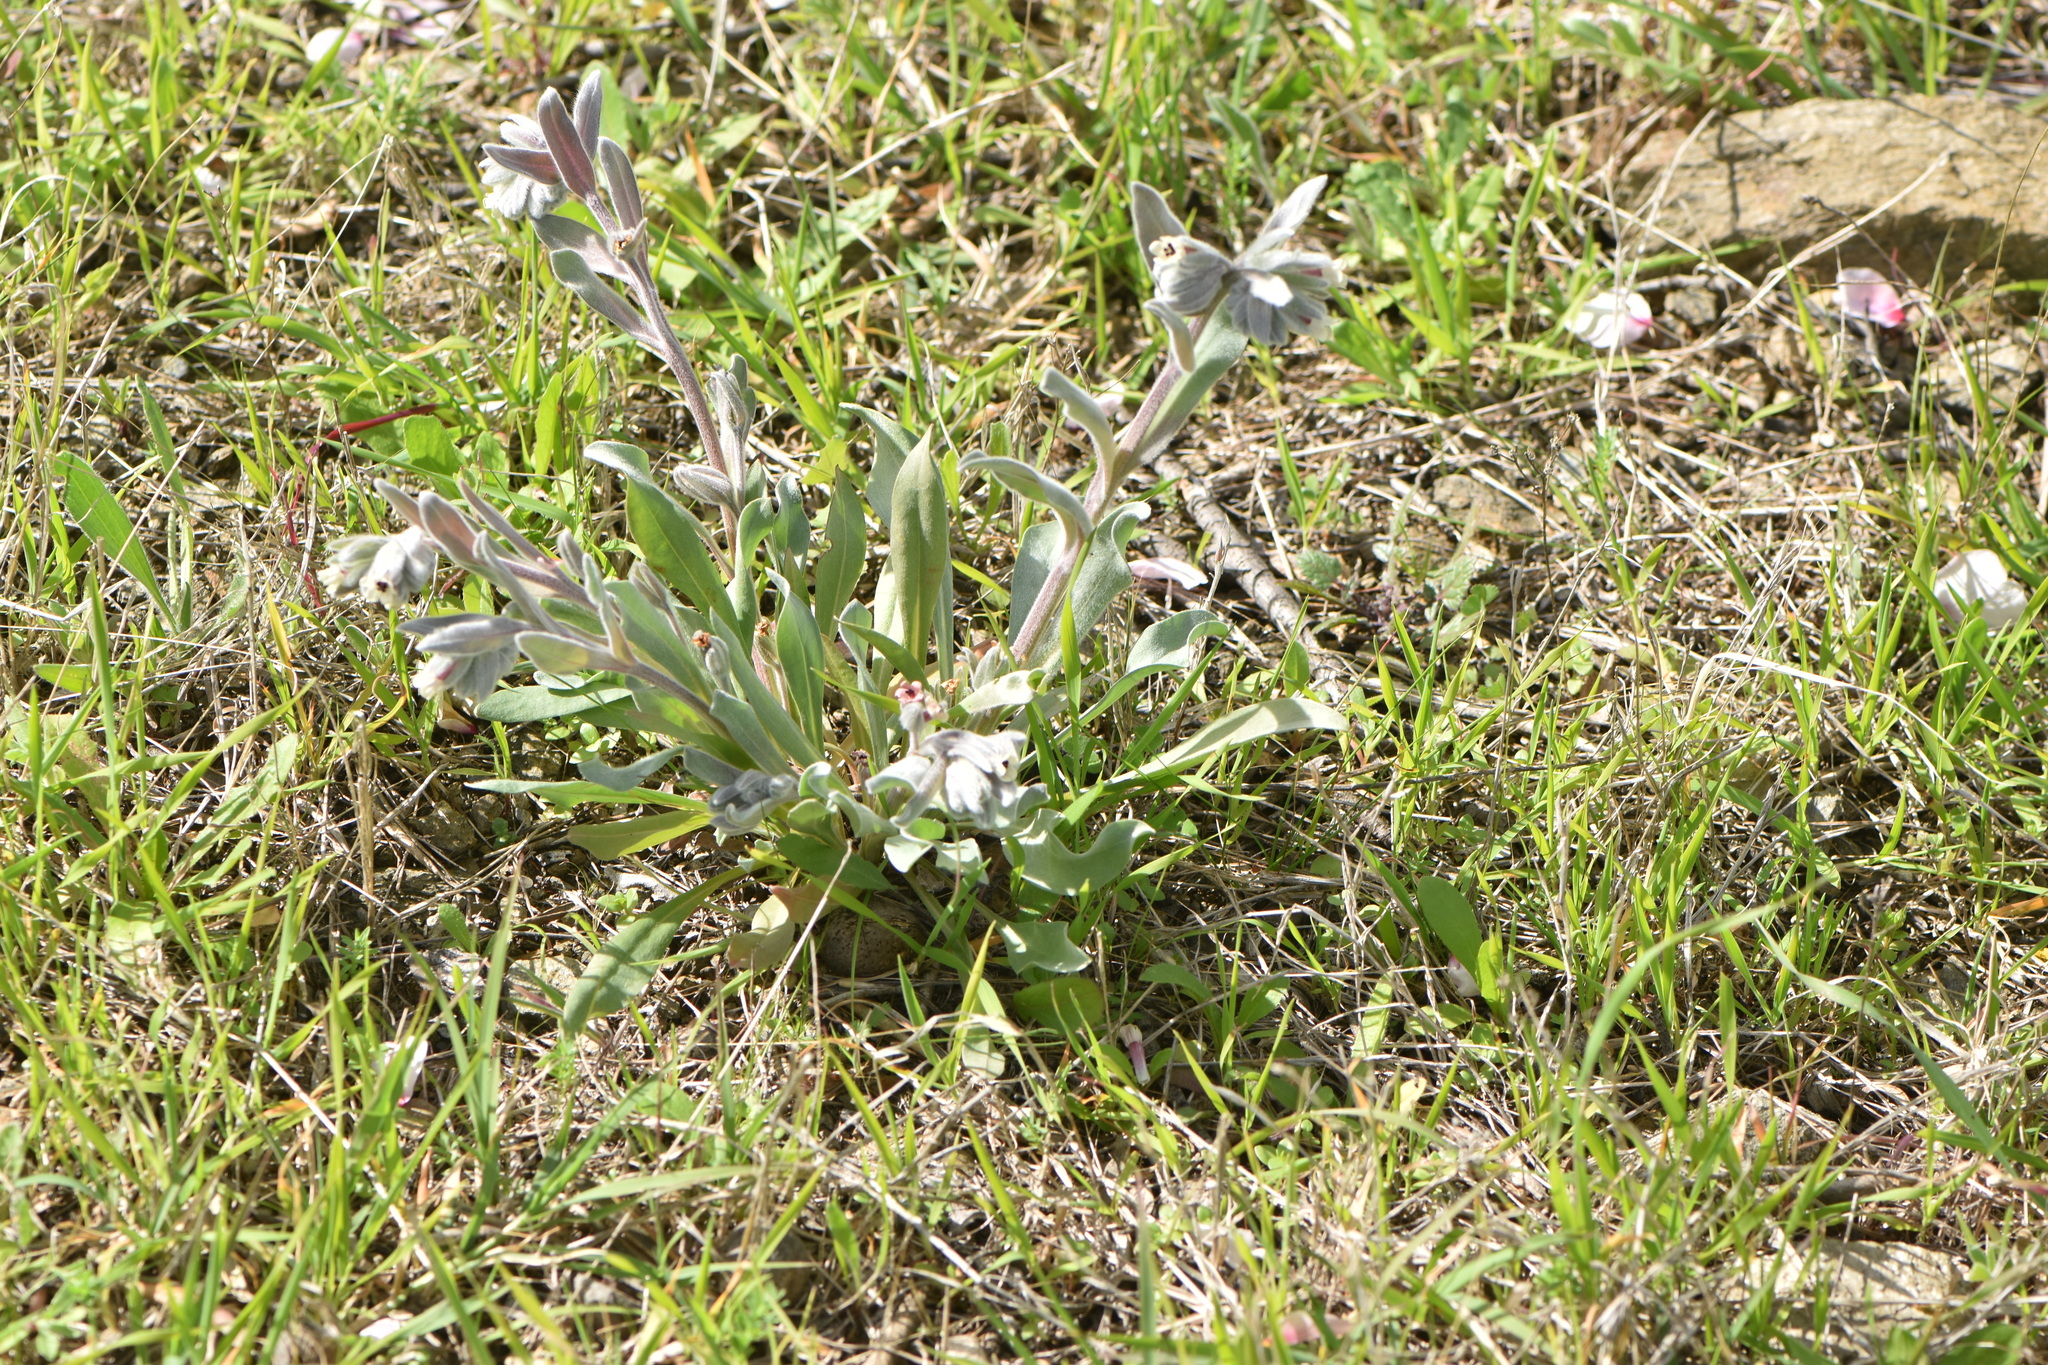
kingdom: Plantae
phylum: Tracheophyta
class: Magnoliopsida
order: Boraginales
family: Boraginaceae
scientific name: Boraginaceae
